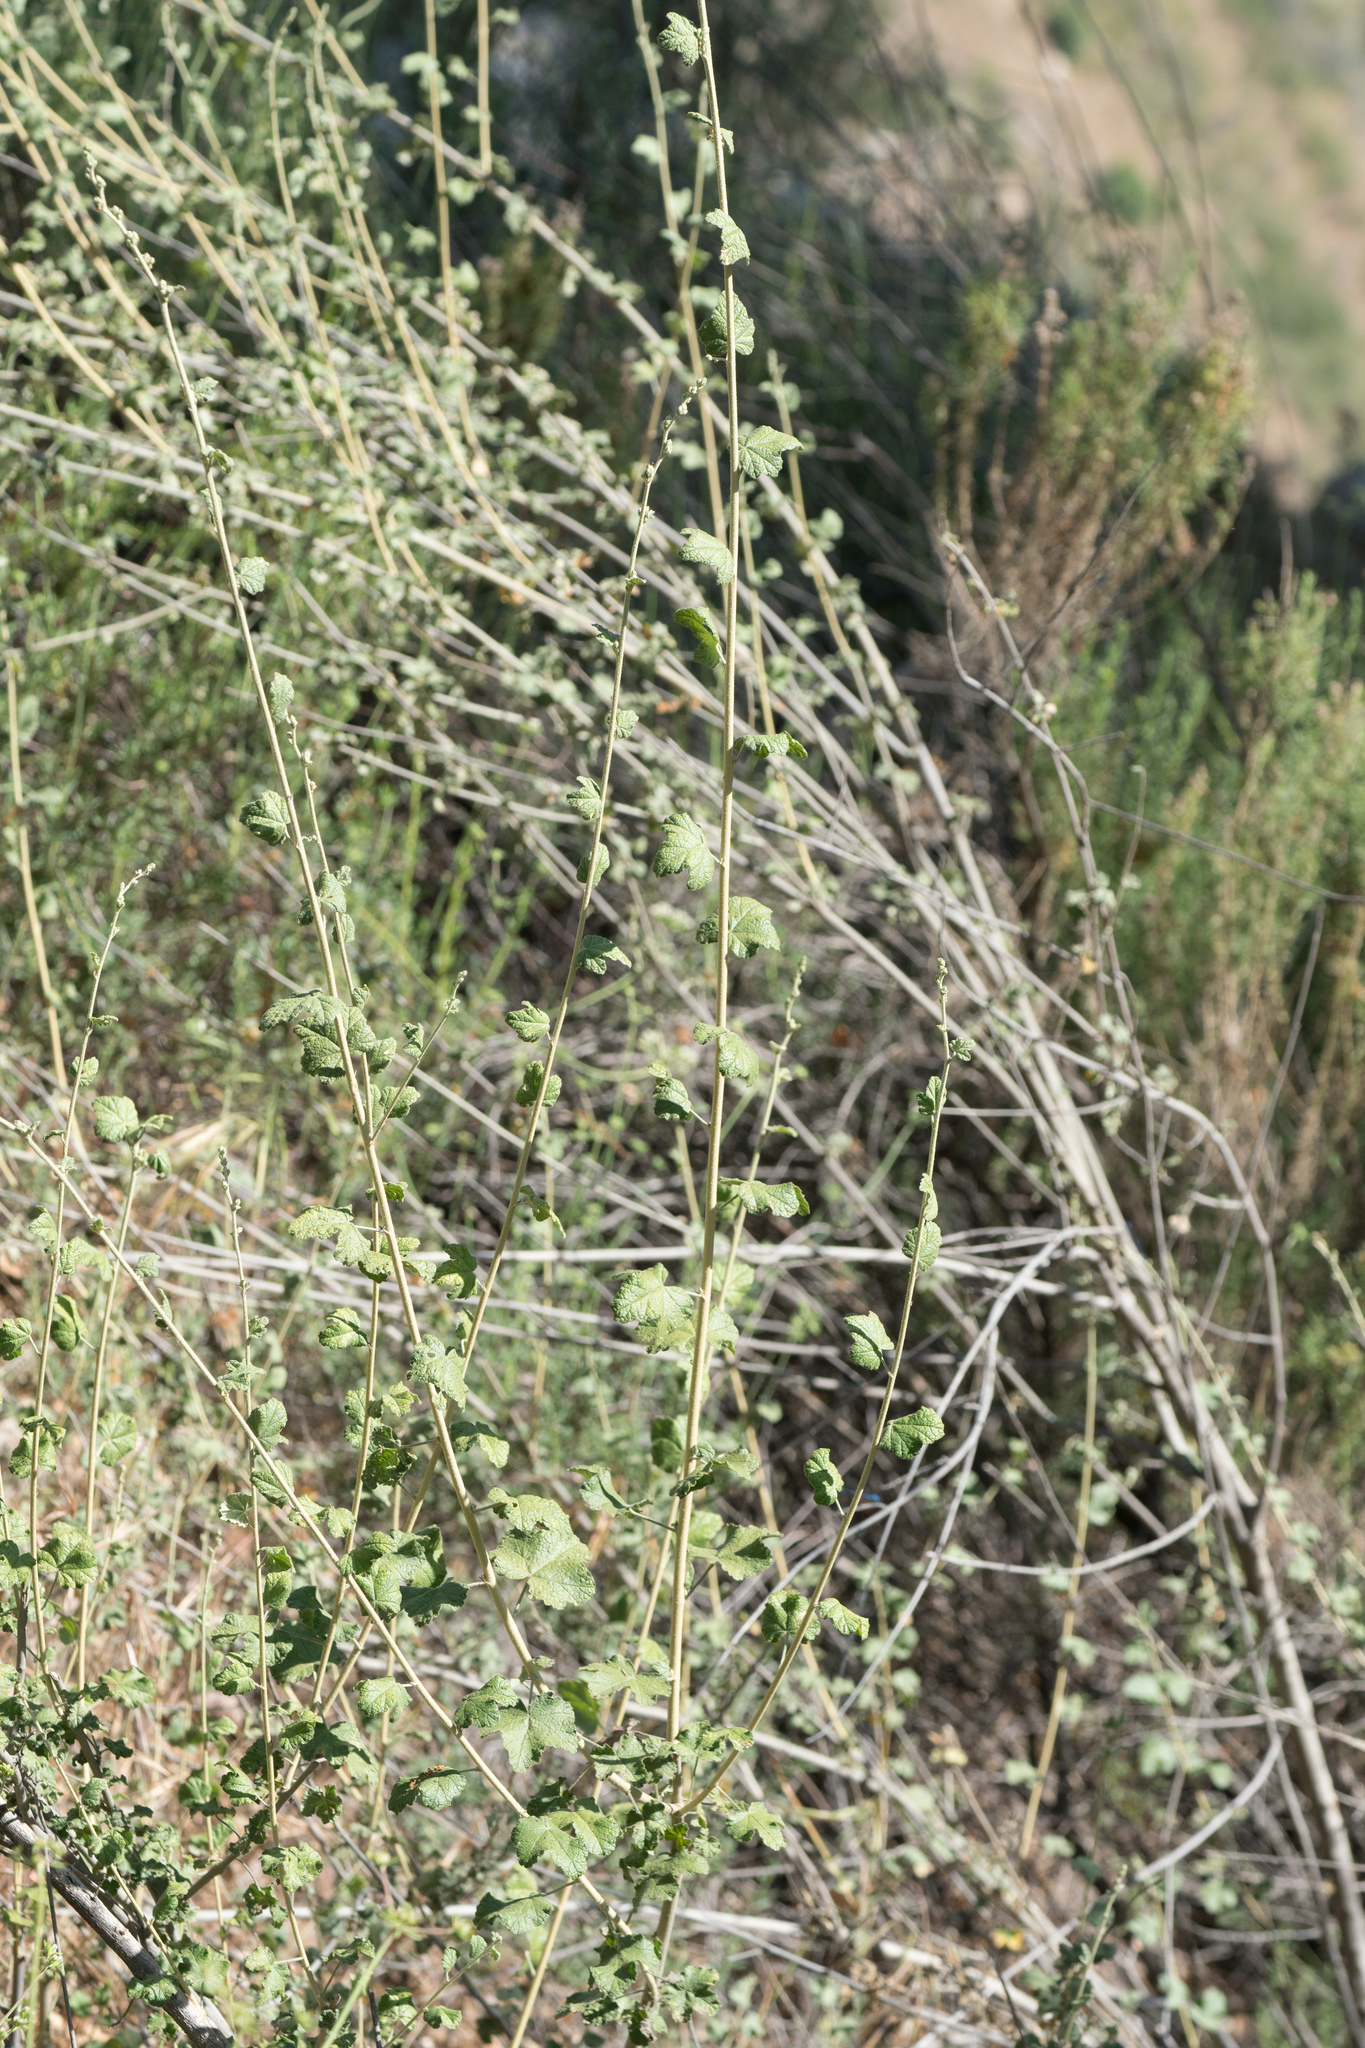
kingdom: Plantae
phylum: Tracheophyta
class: Magnoliopsida
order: Malvales
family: Malvaceae
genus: Malacothamnus
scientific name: Malacothamnus fasciculatus
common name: Sant cruz island bush-mallow
